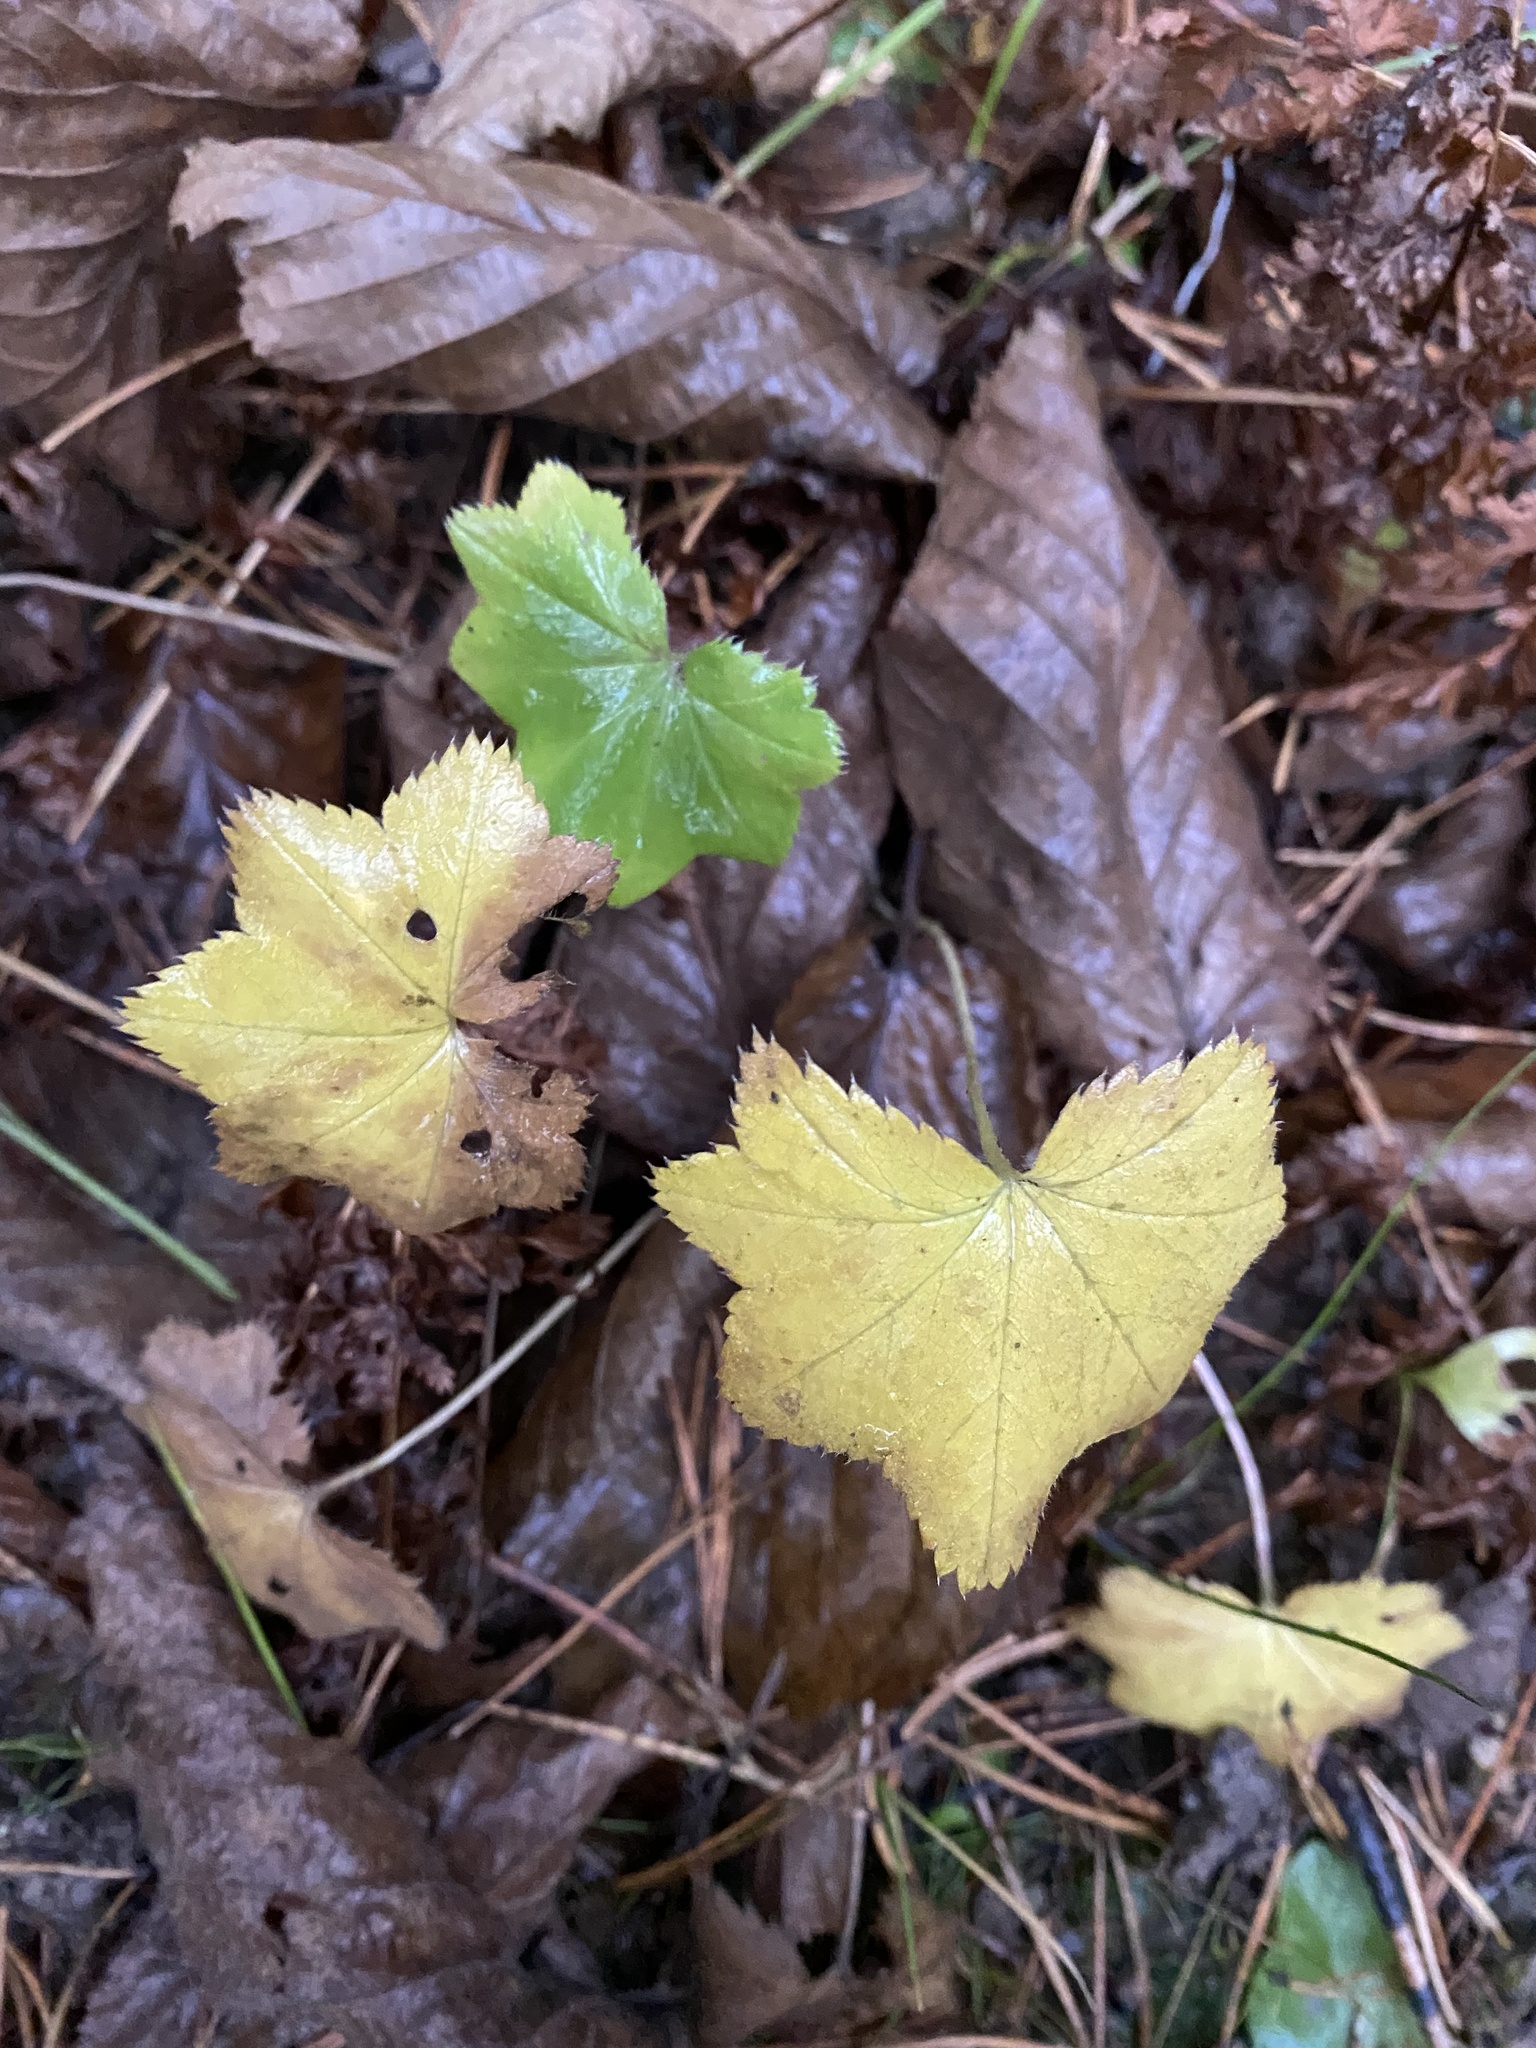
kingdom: Plantae
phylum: Tracheophyta
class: Magnoliopsida
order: Rosales
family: Rosaceae
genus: Alchemilla
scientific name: Alchemilla
